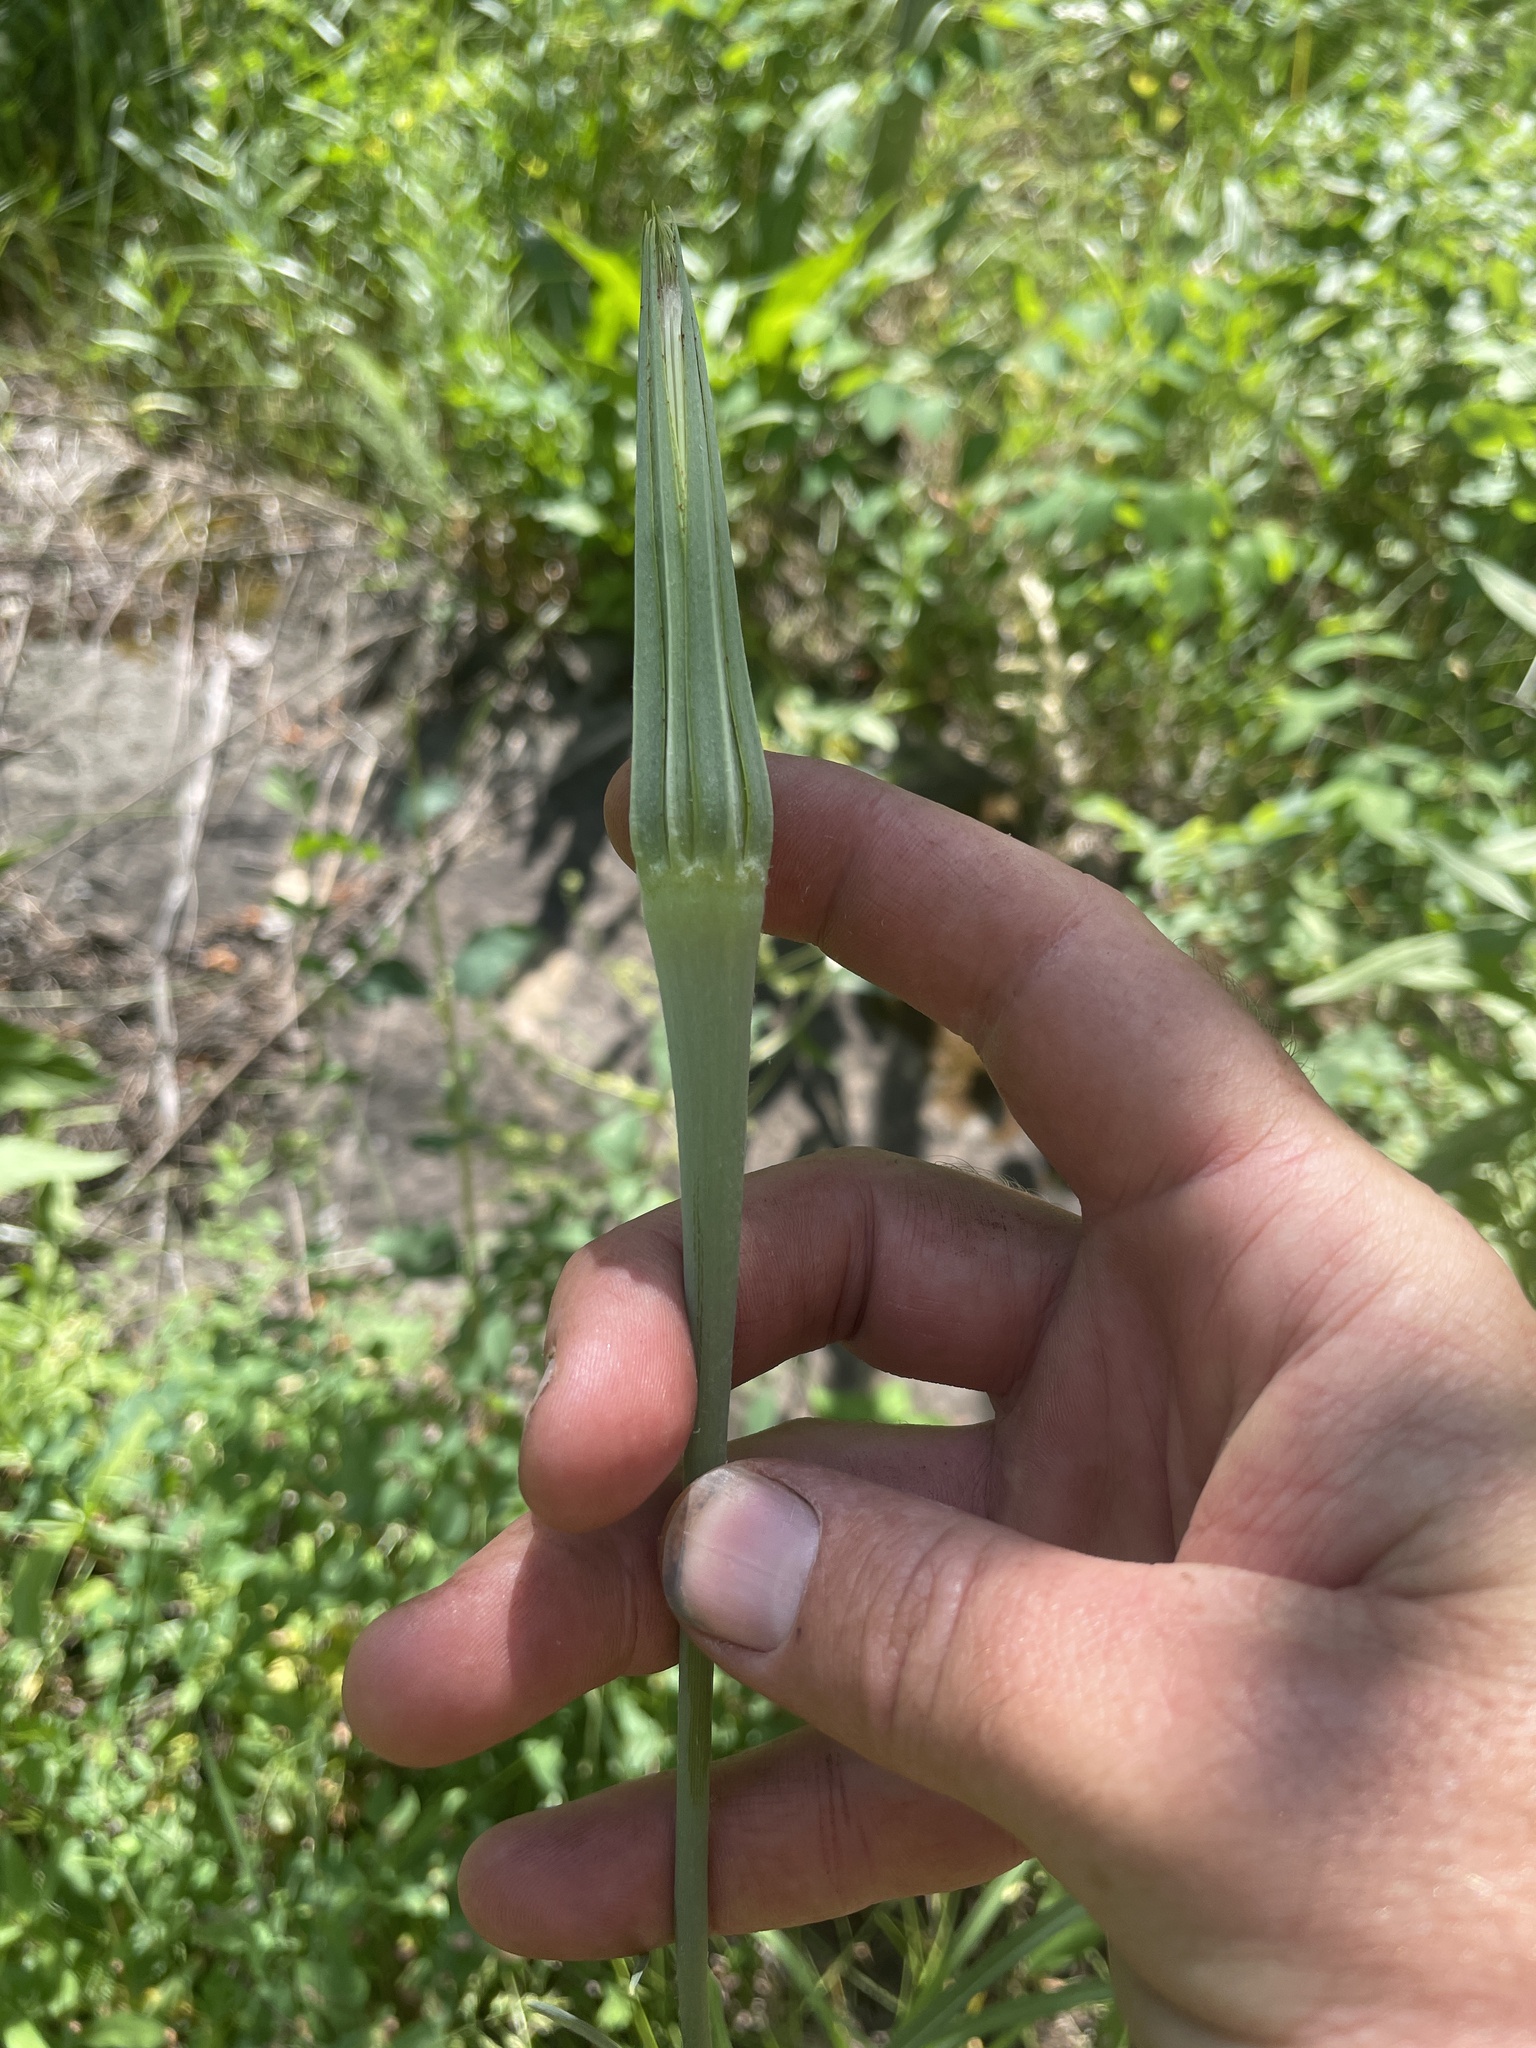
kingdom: Plantae
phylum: Tracheophyta
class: Magnoliopsida
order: Asterales
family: Asteraceae
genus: Tragopogon
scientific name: Tragopogon dubius
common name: Yellow salsify
